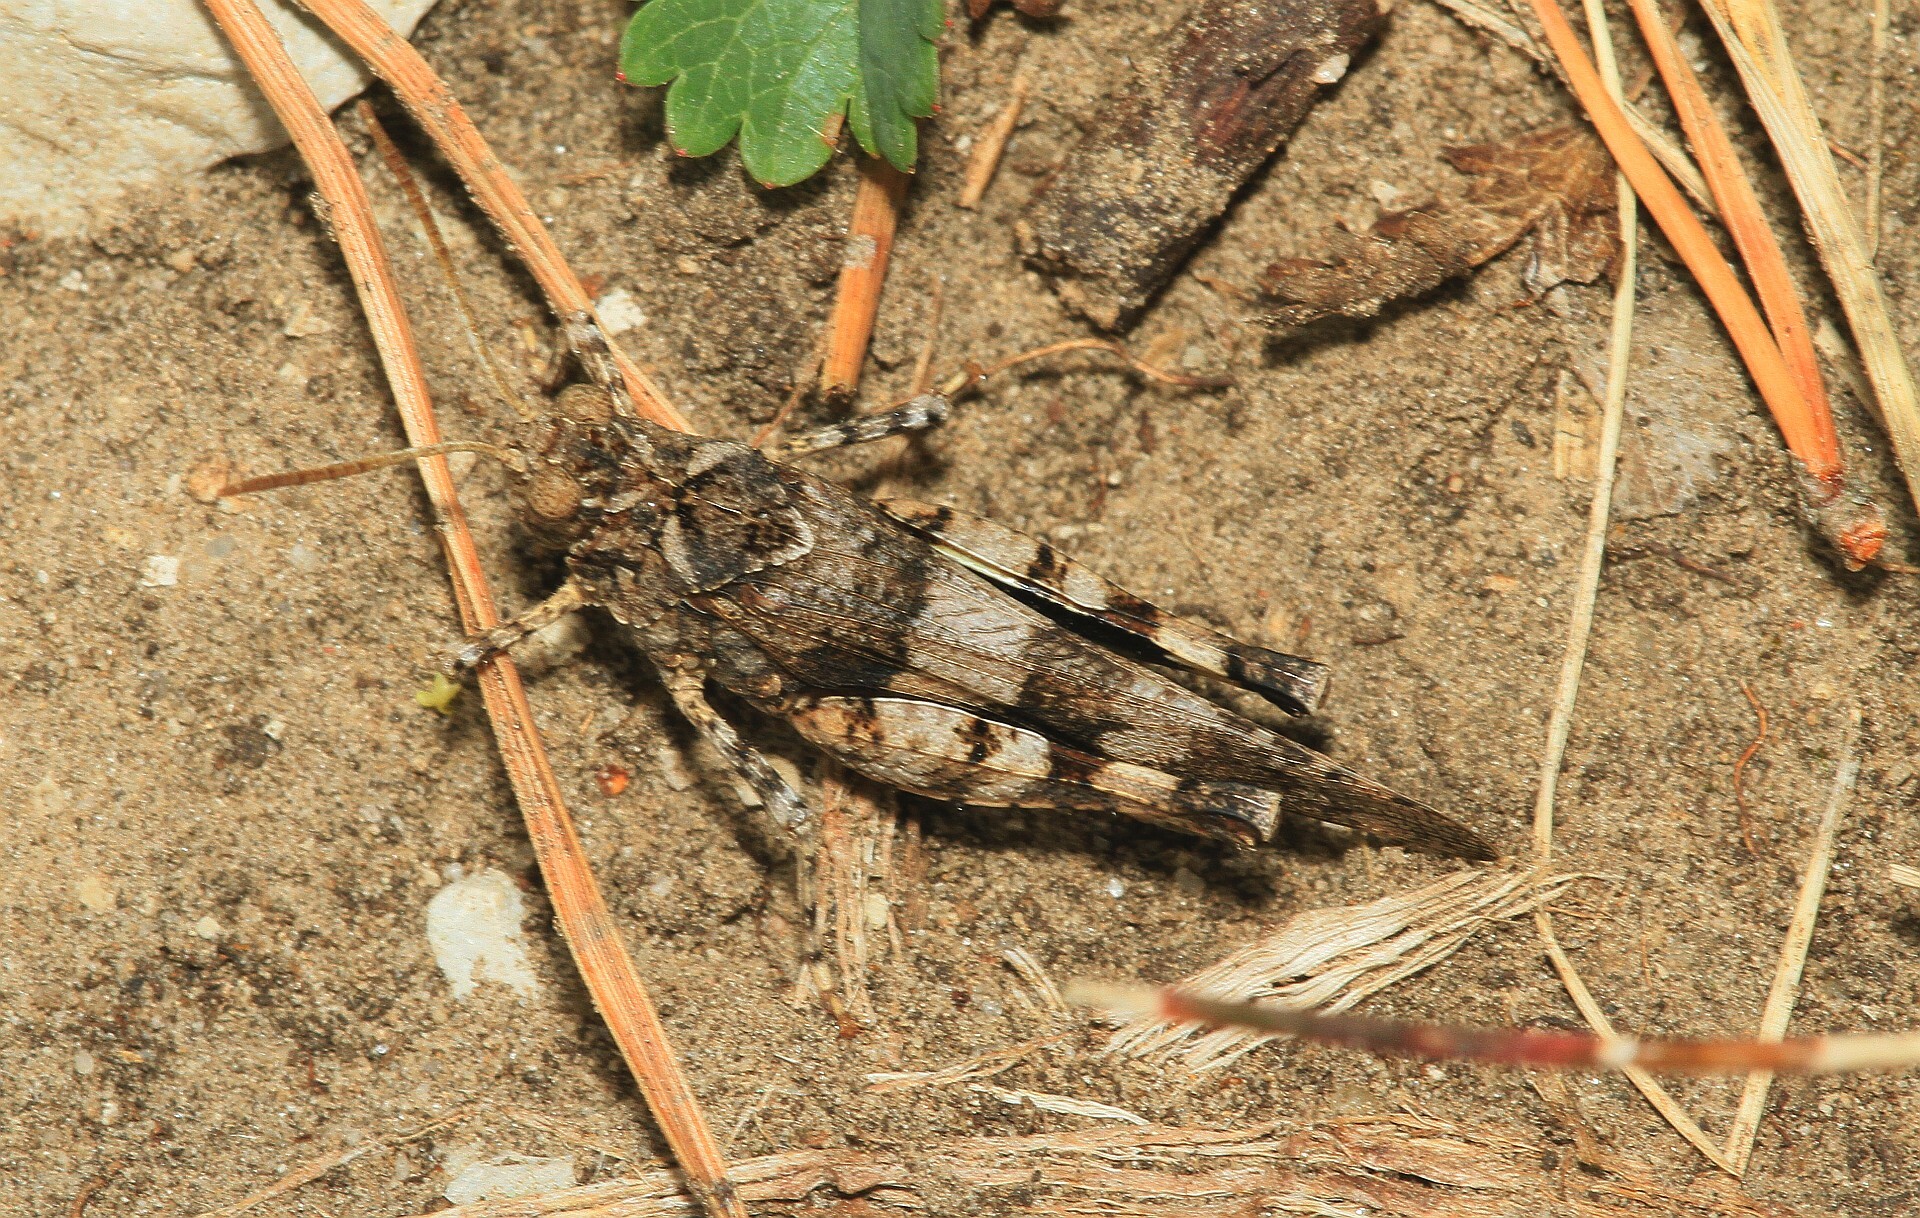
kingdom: Animalia
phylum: Arthropoda
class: Insecta
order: Orthoptera
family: Acrididae
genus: Oedipoda
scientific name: Oedipoda caerulescens
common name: Blue-winged grasshopper
